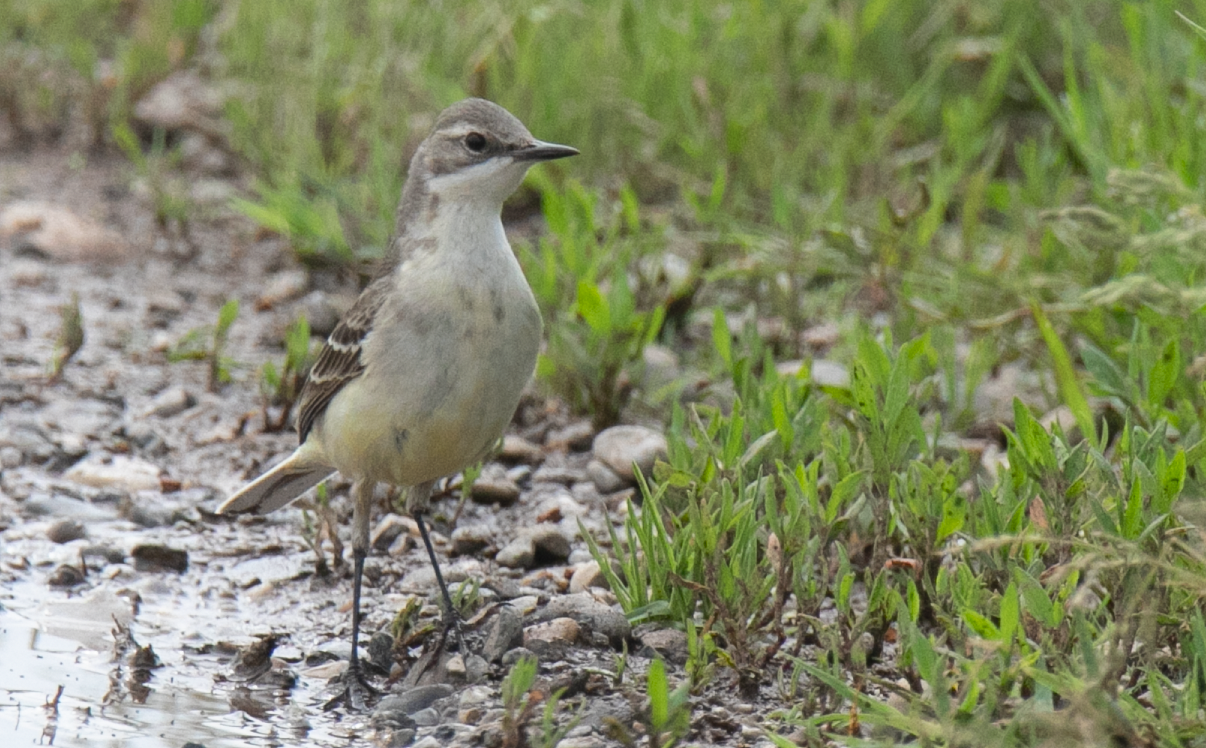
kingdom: Animalia
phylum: Chordata
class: Aves
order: Passeriformes
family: Motacillidae
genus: Motacilla
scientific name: Motacilla flava
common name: Western yellow wagtail
